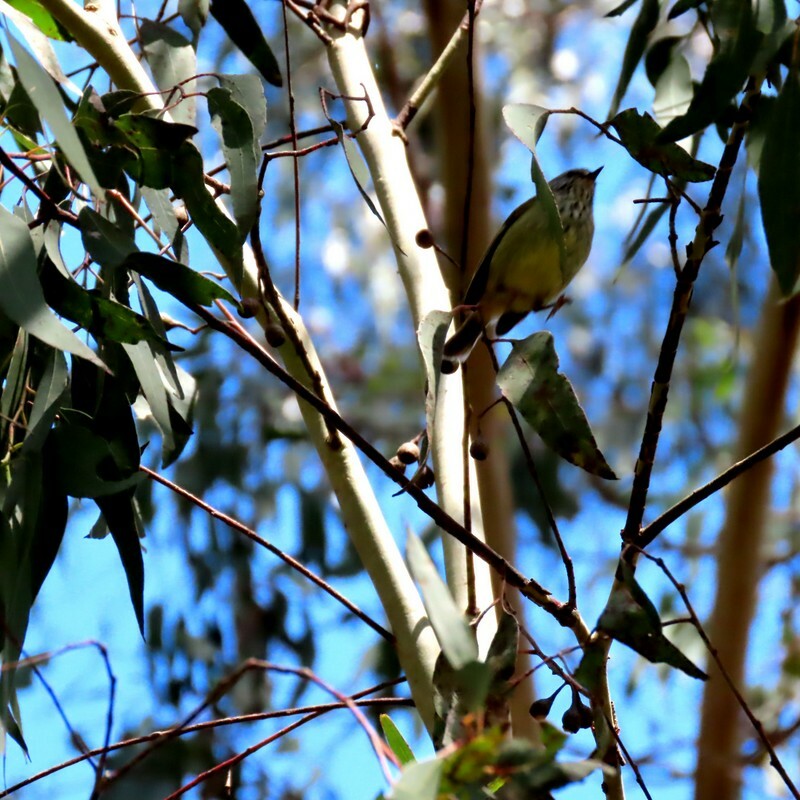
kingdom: Animalia
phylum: Chordata
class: Aves
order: Passeriformes
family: Acanthizidae
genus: Acanthiza
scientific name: Acanthiza lineata
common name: Striated thornbill
